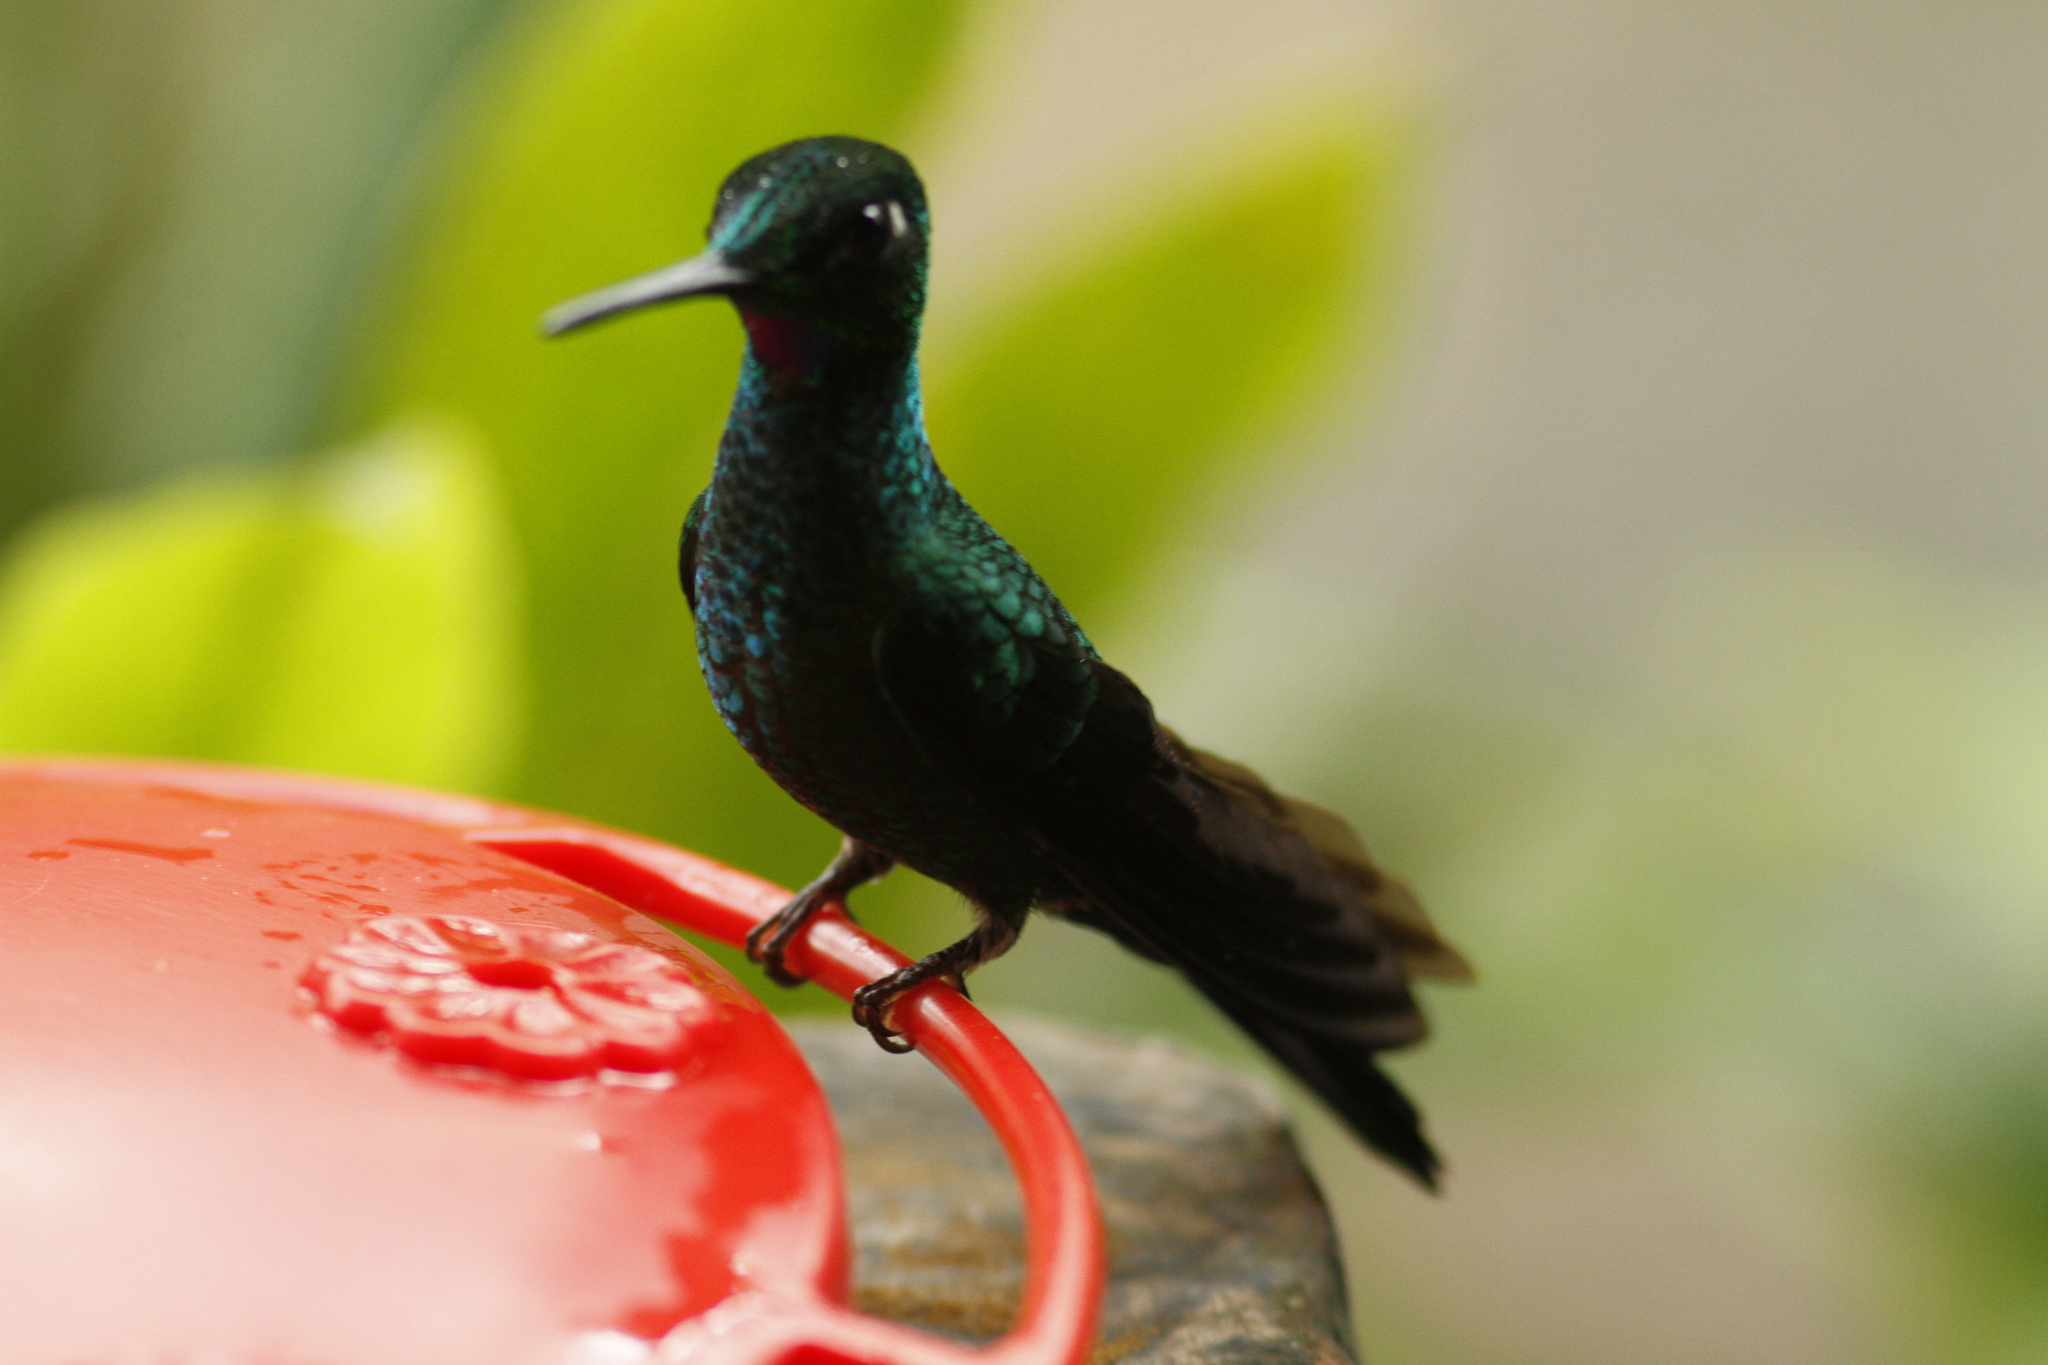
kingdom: Animalia
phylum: Chordata
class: Aves
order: Apodiformes
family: Trochilidae
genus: Heliodoxa
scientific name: Heliodoxa jacula
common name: Green-crowned brilliant
